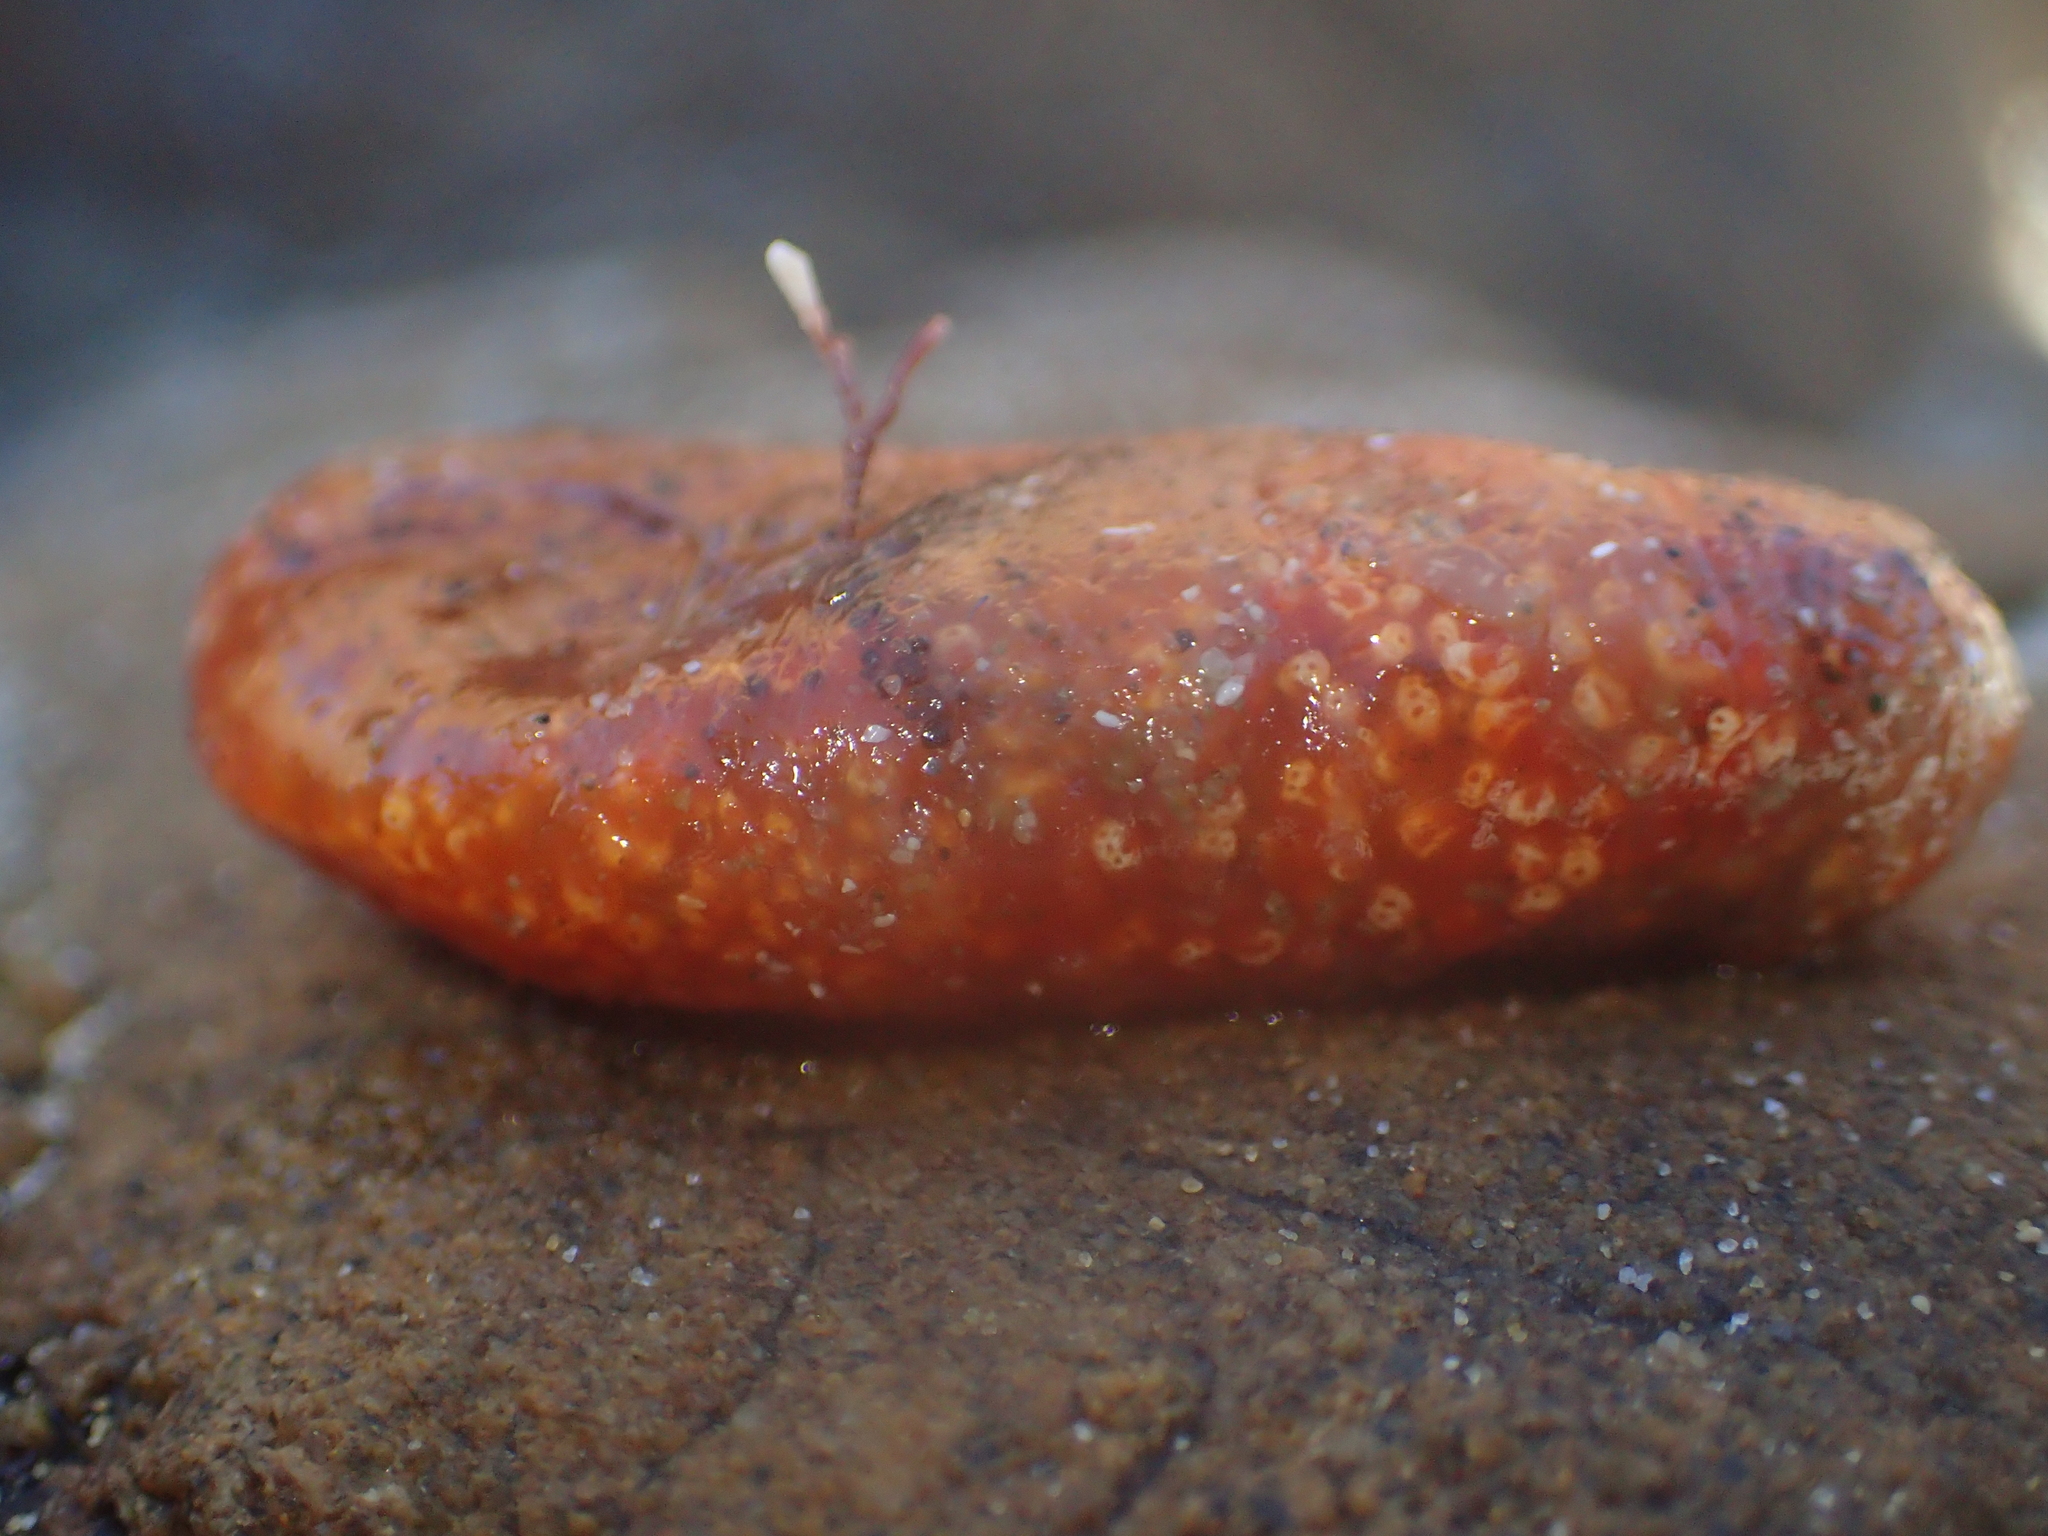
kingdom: Animalia
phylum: Chordata
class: Ascidiacea
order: Aplousobranchia
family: Polyclinidae
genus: Aplidium
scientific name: Aplidium benhami
